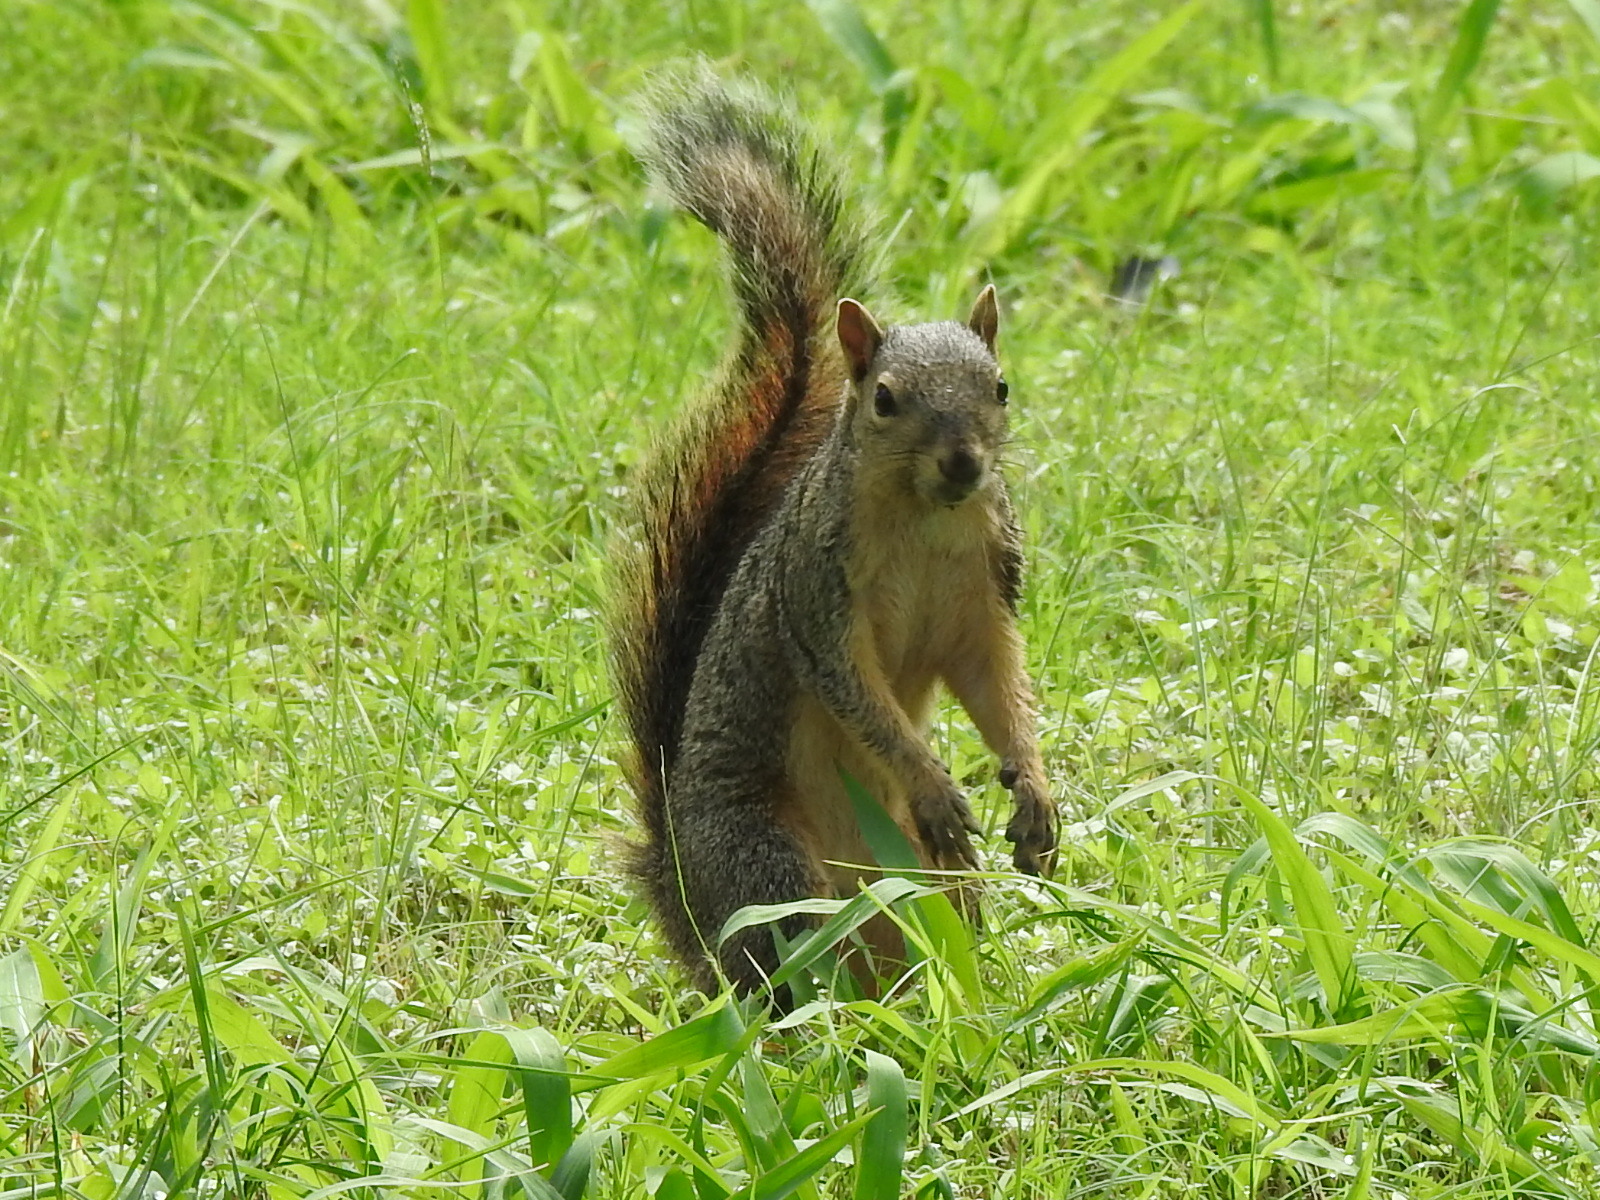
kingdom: Animalia
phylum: Chordata
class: Mammalia
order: Rodentia
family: Sciuridae
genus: Sciurus
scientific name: Sciurus niger
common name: Fox squirrel
